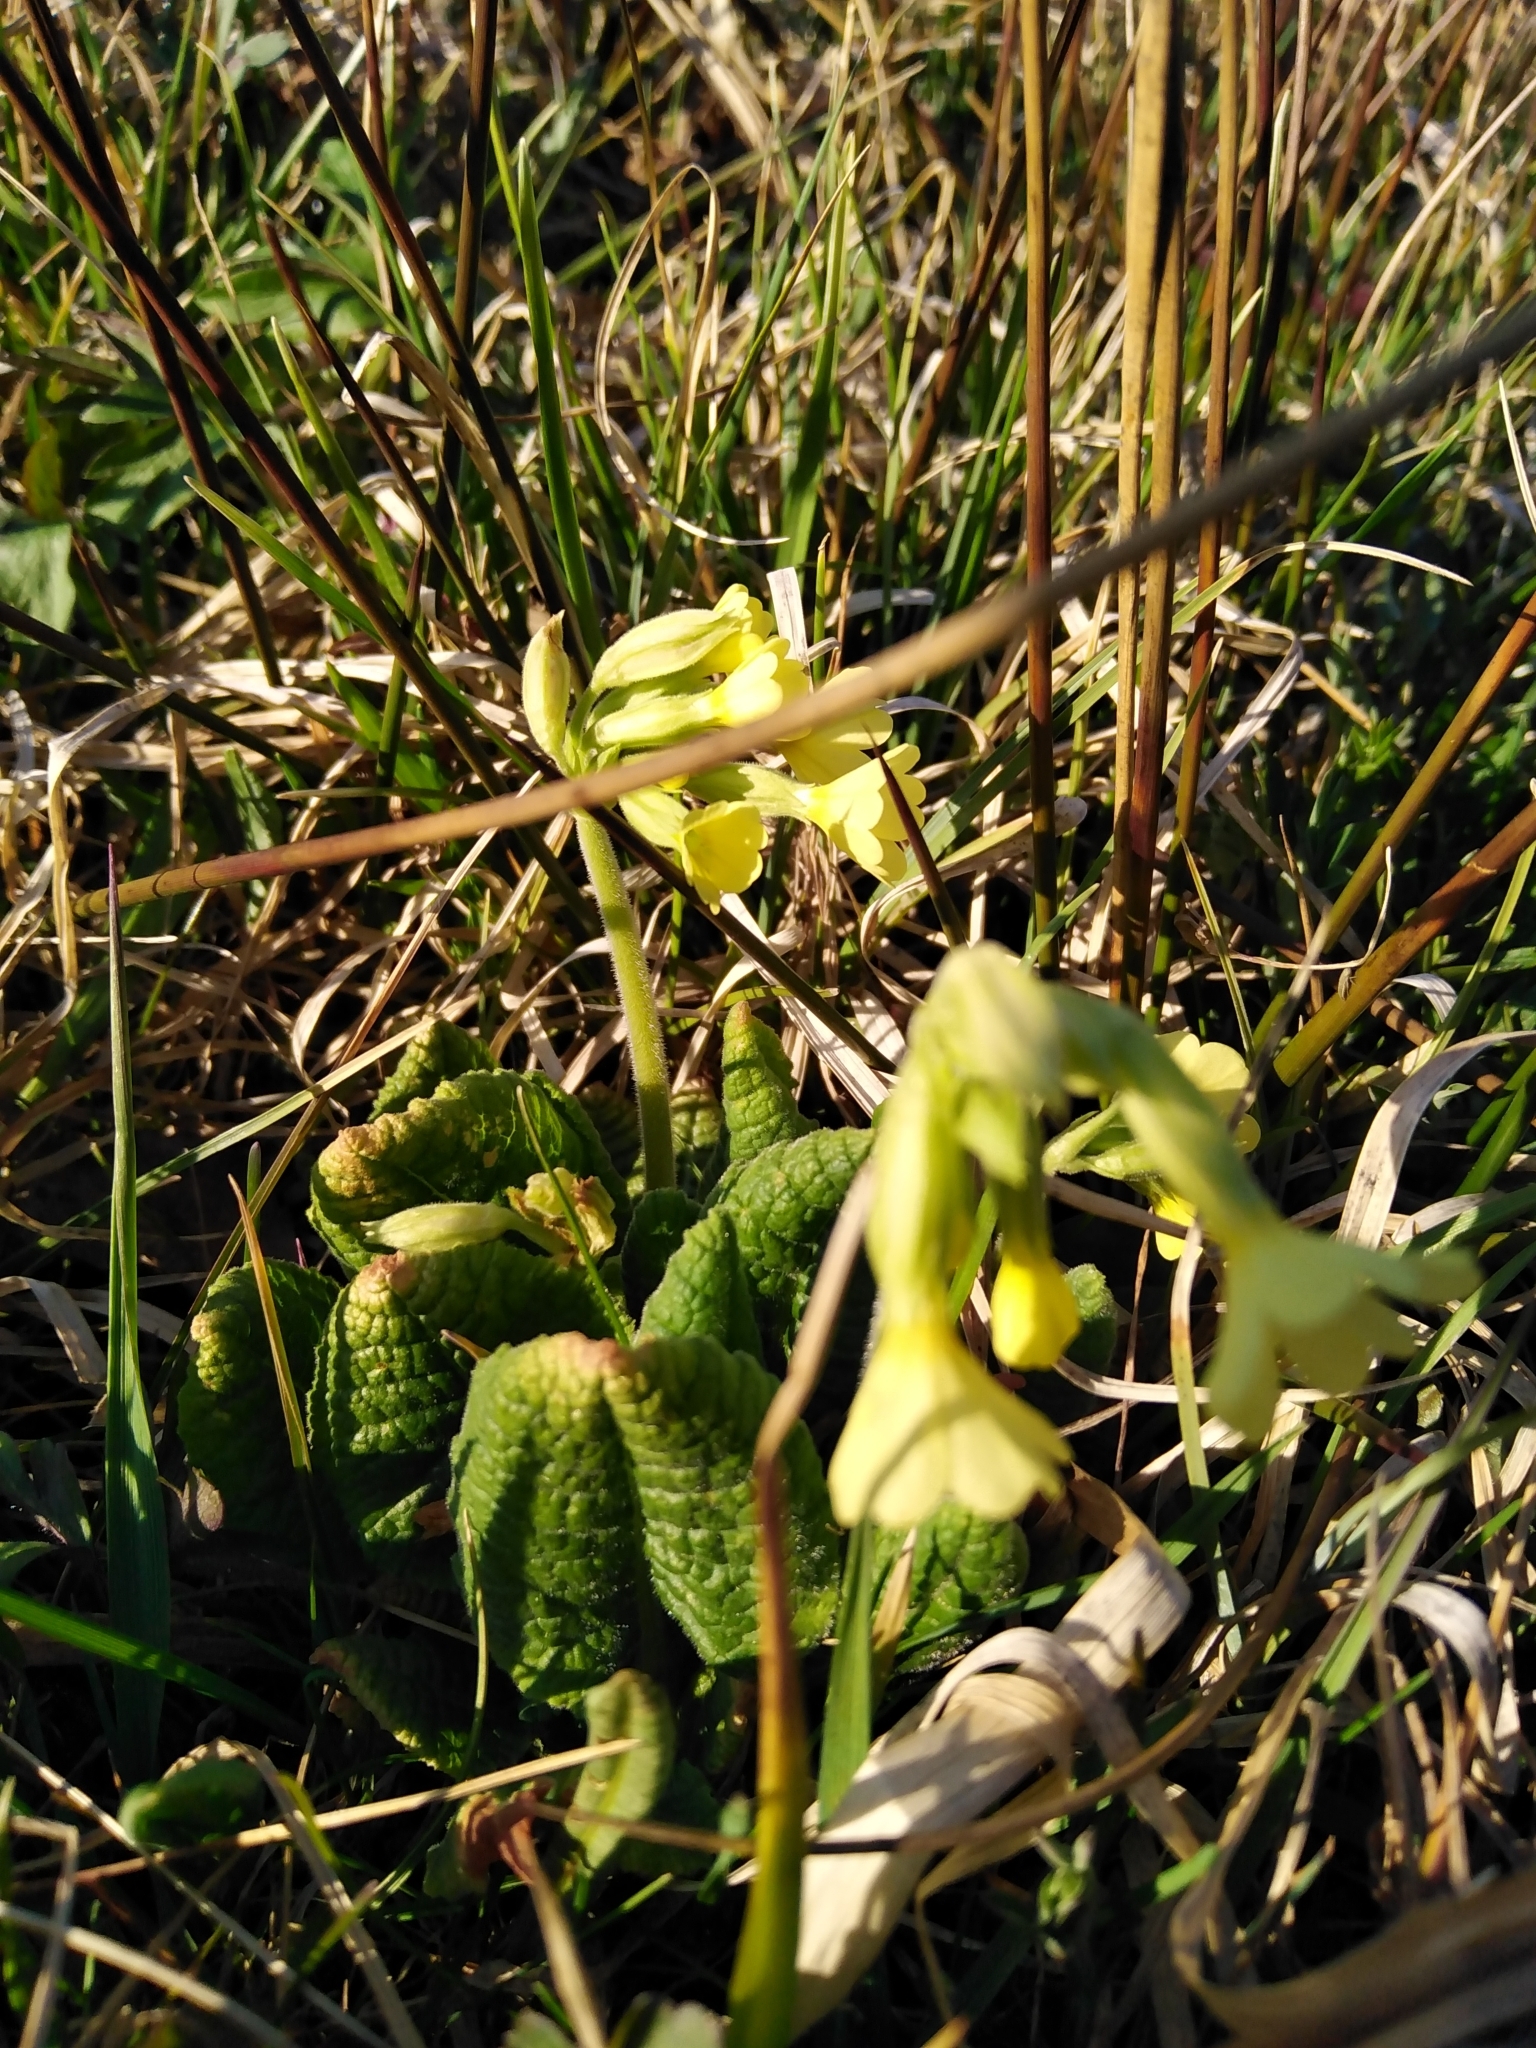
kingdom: Plantae
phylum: Tracheophyta
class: Magnoliopsida
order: Ericales
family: Primulaceae
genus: Primula
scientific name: Primula elatior
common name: Oxlip
